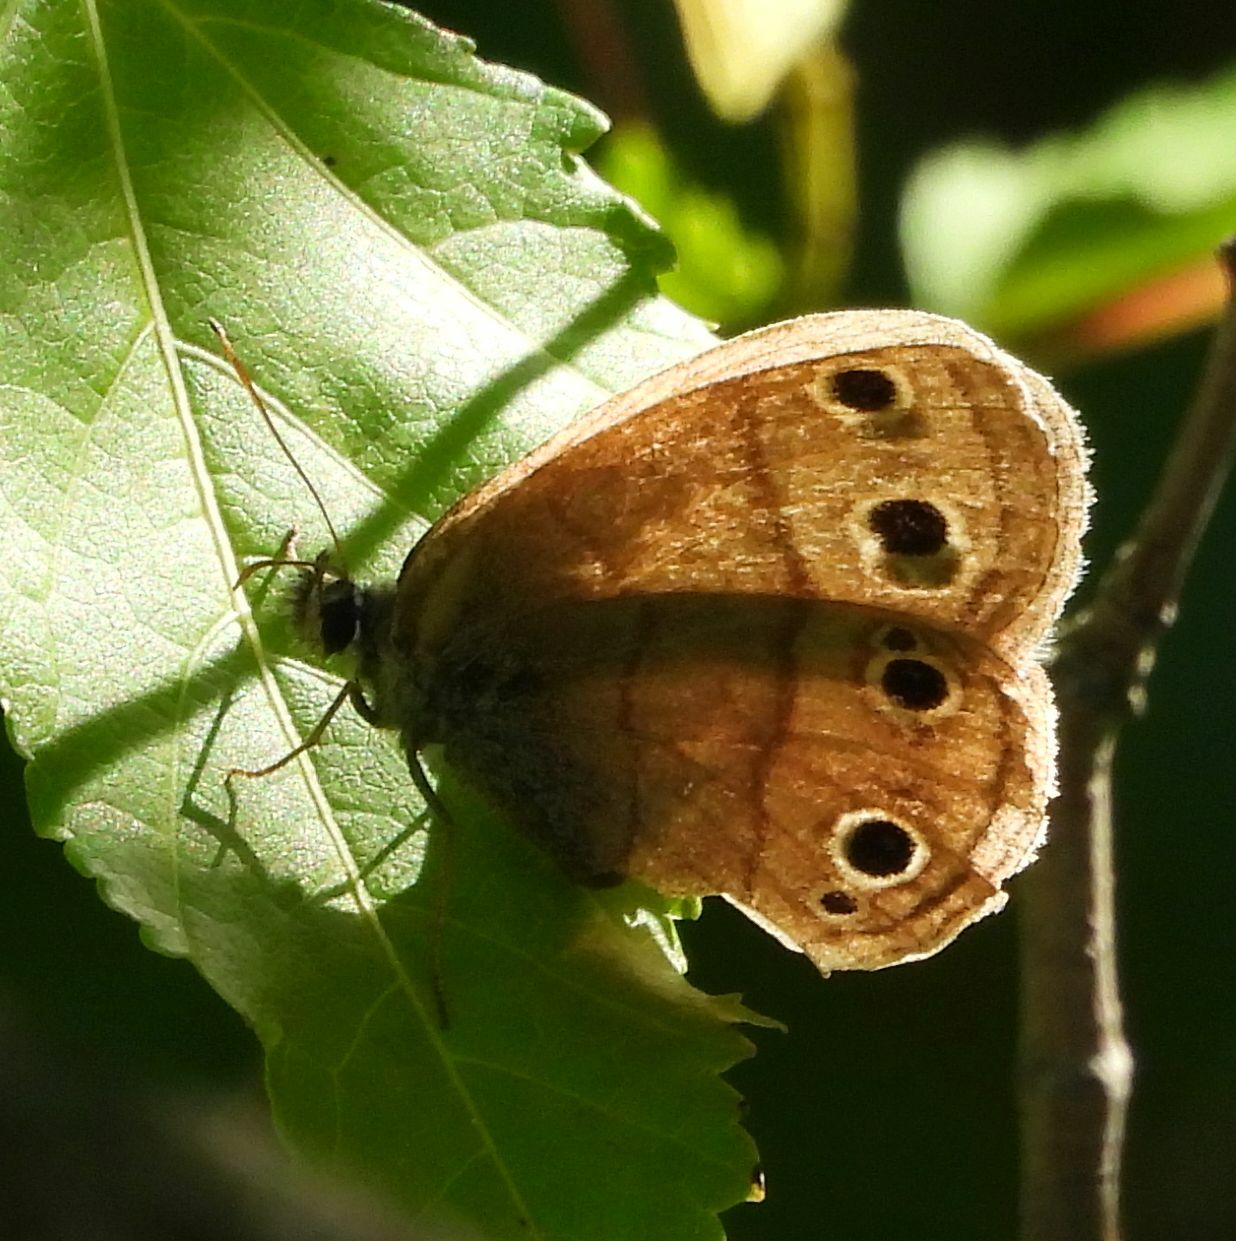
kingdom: Animalia
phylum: Arthropoda
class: Insecta
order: Lepidoptera
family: Nymphalidae
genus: Euptychia
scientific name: Euptychia cymela
